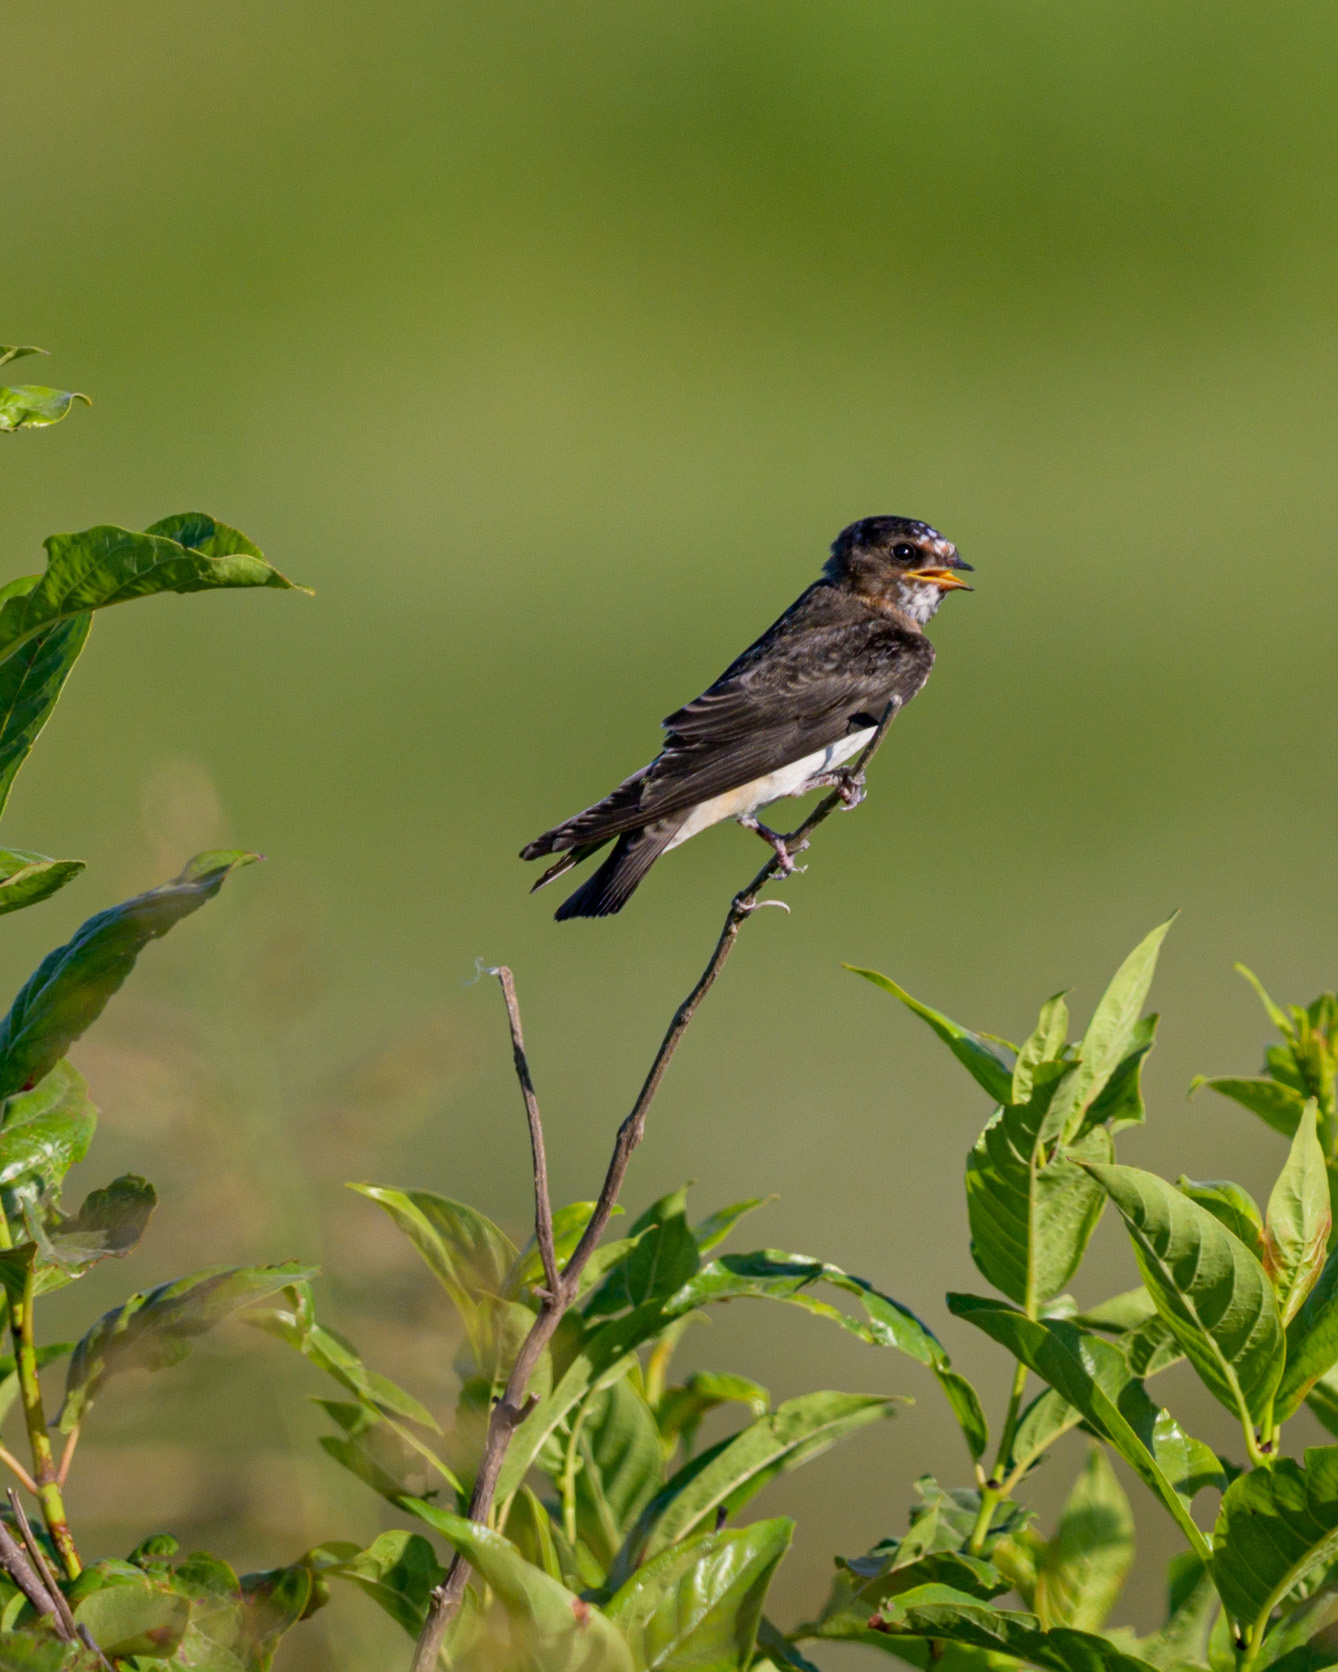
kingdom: Animalia
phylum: Chordata
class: Aves
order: Passeriformes
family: Hirundinidae
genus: Petrochelidon
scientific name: Petrochelidon pyrrhonota
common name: American cliff swallow
